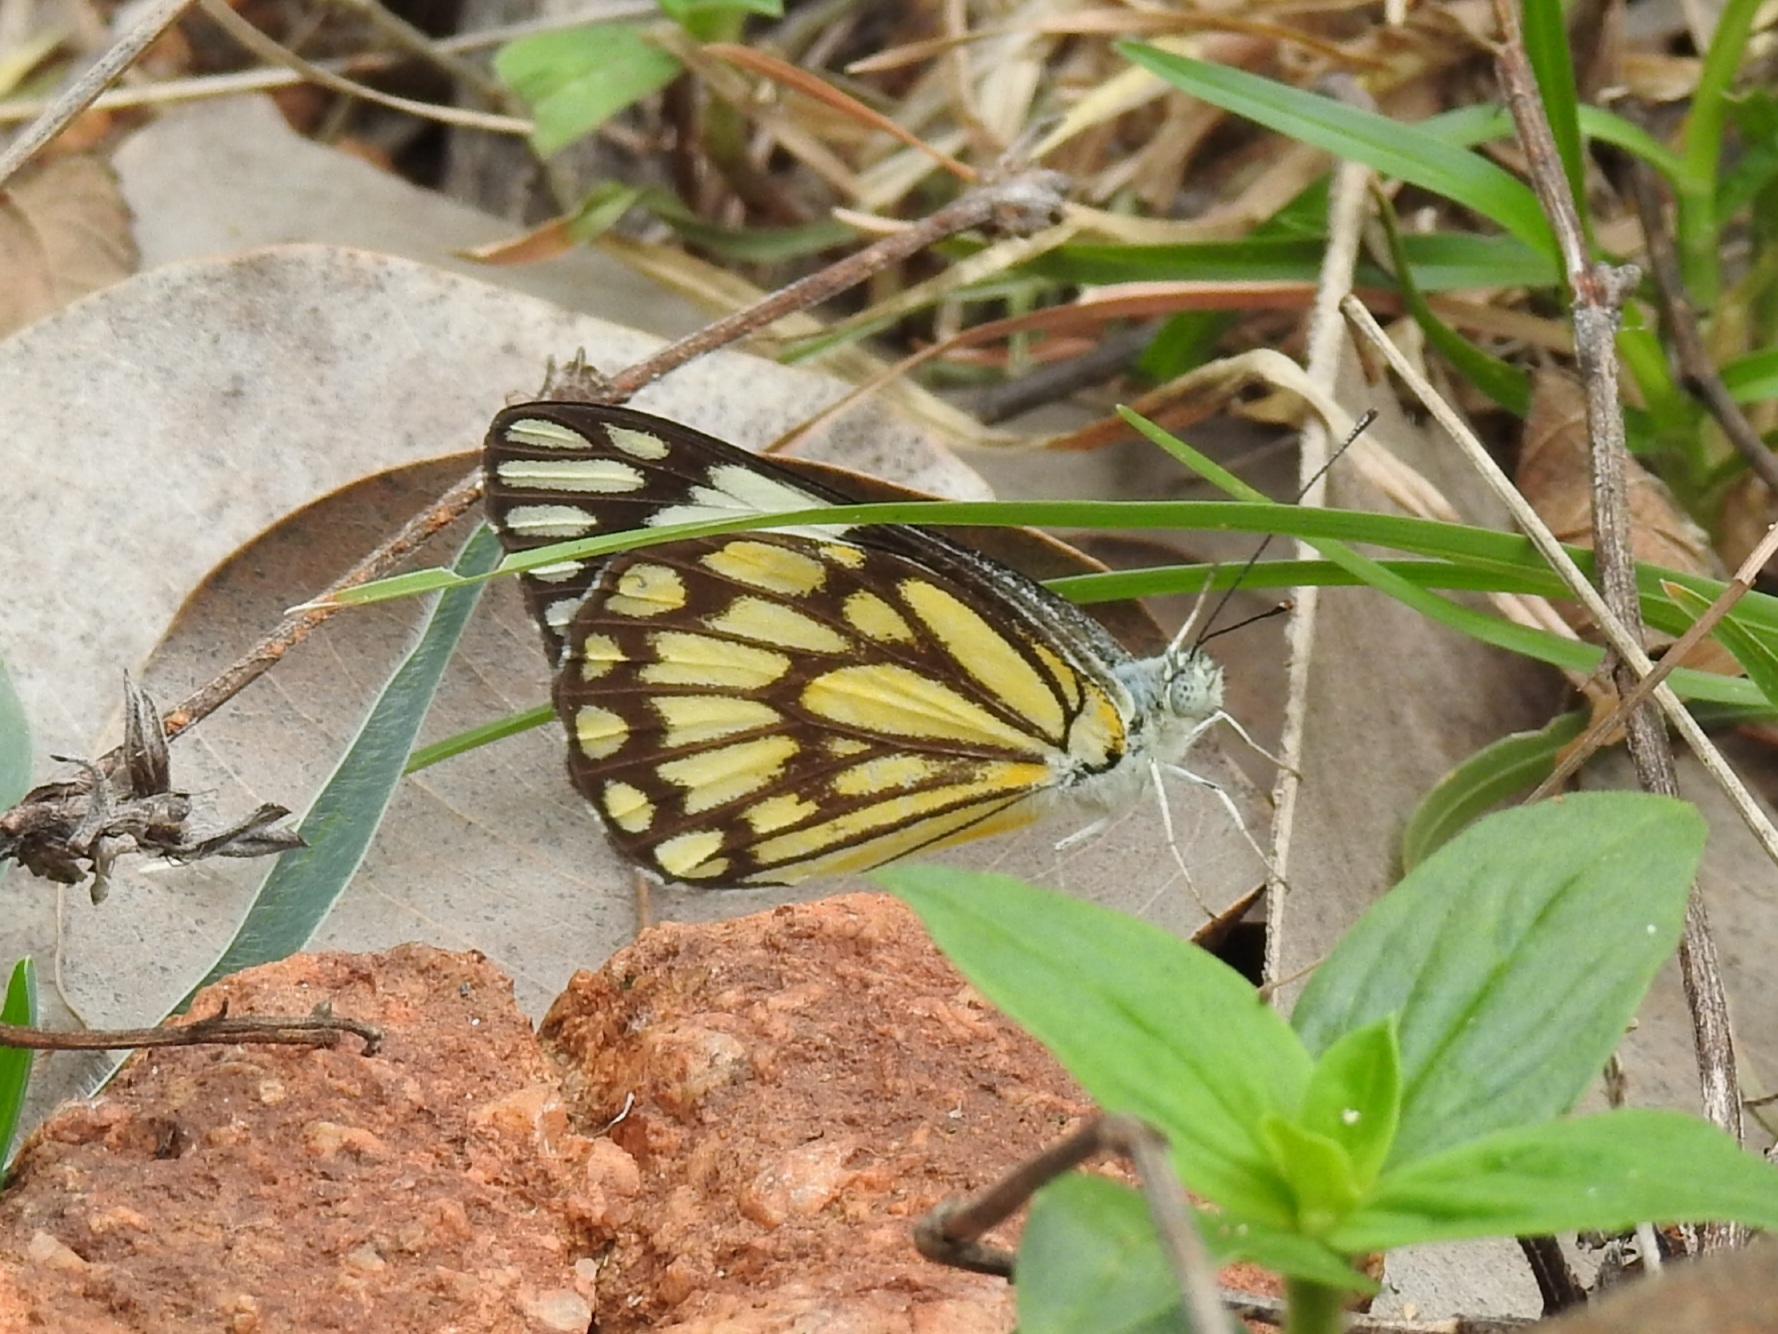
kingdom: Animalia
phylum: Arthropoda
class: Insecta
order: Lepidoptera
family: Pieridae
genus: Belenois
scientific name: Belenois aurota
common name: Brown-veined white
